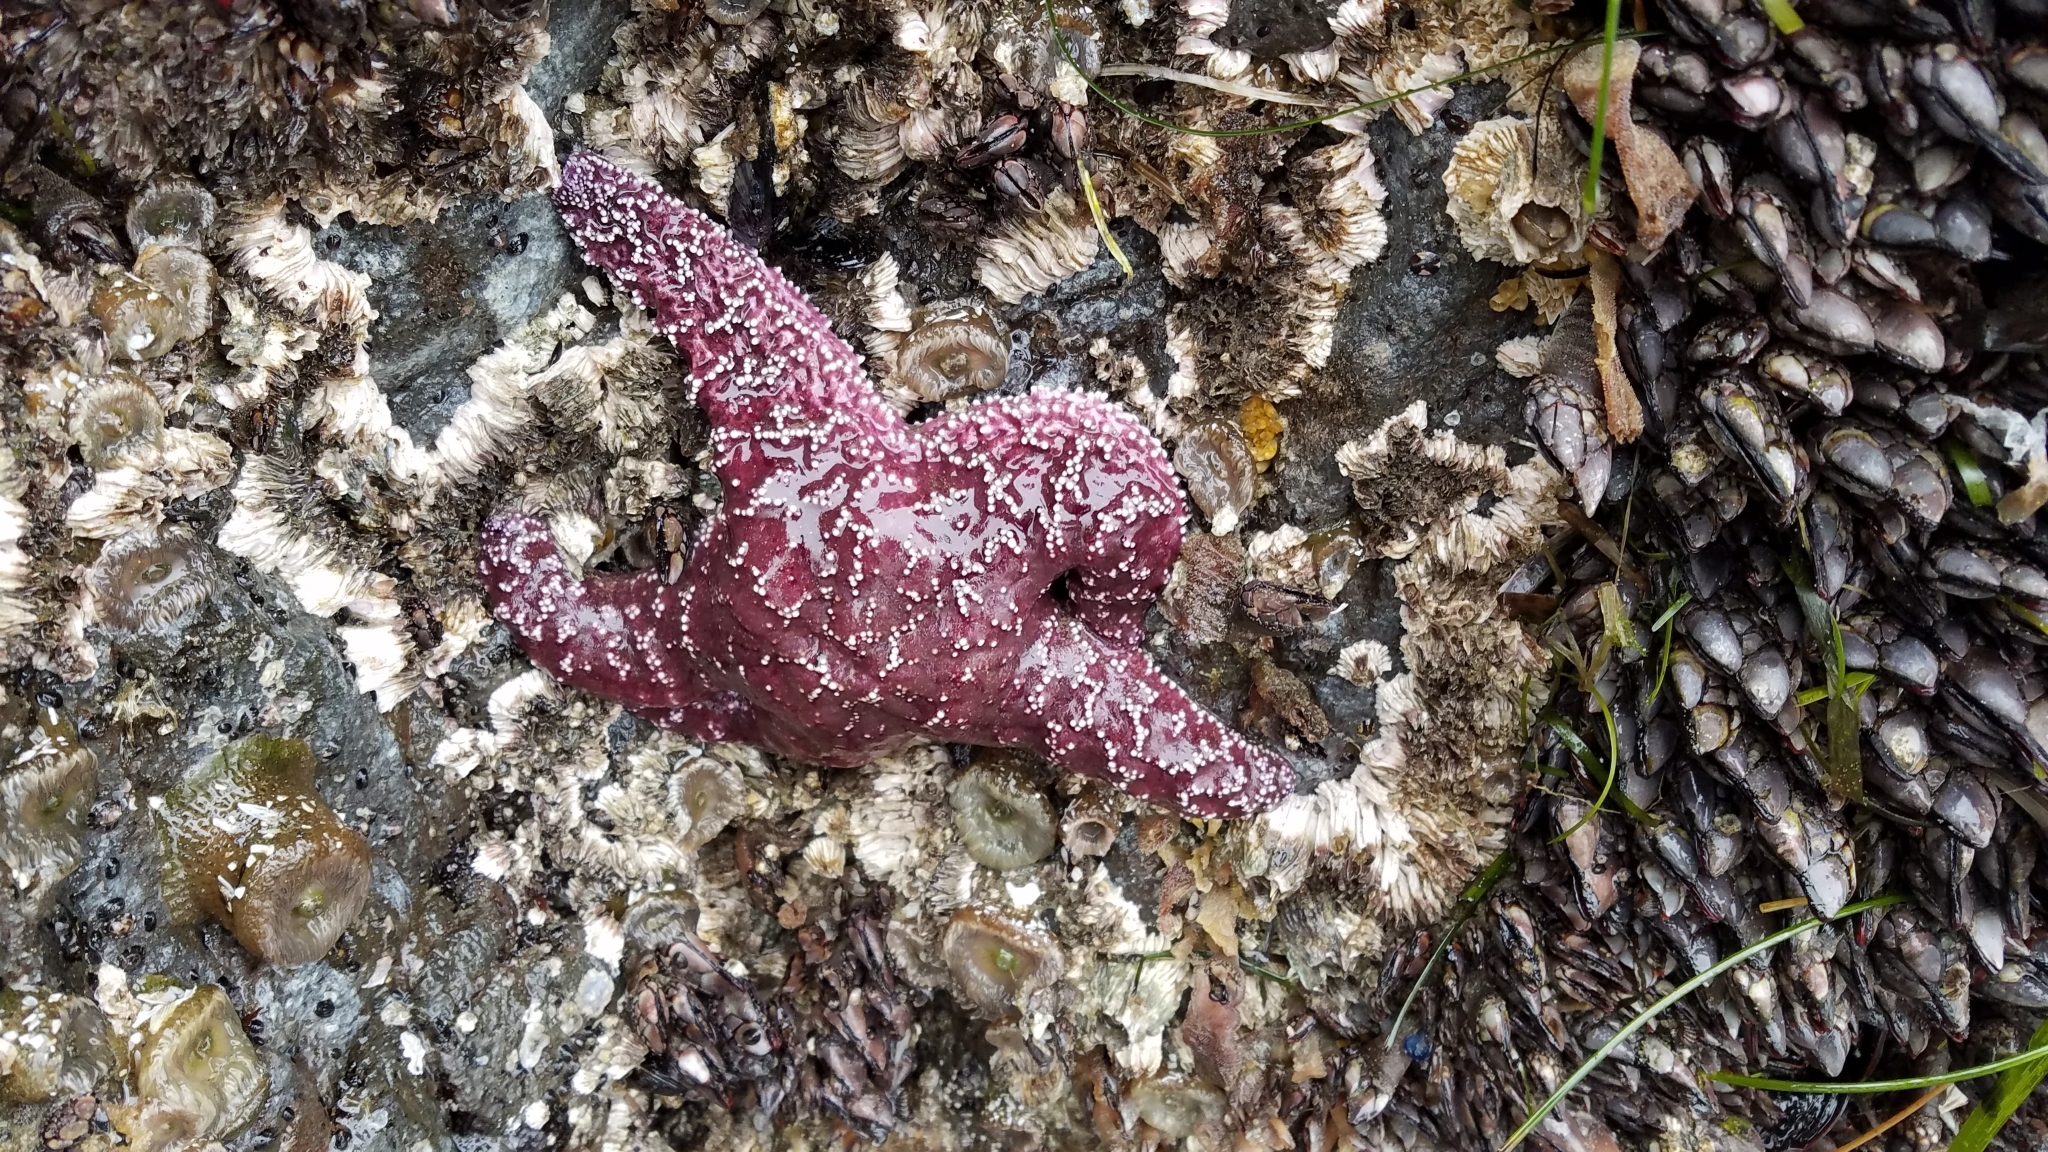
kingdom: Animalia
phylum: Echinodermata
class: Asteroidea
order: Forcipulatida
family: Asteriidae
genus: Pisaster
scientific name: Pisaster ochraceus
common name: Ochre stars
